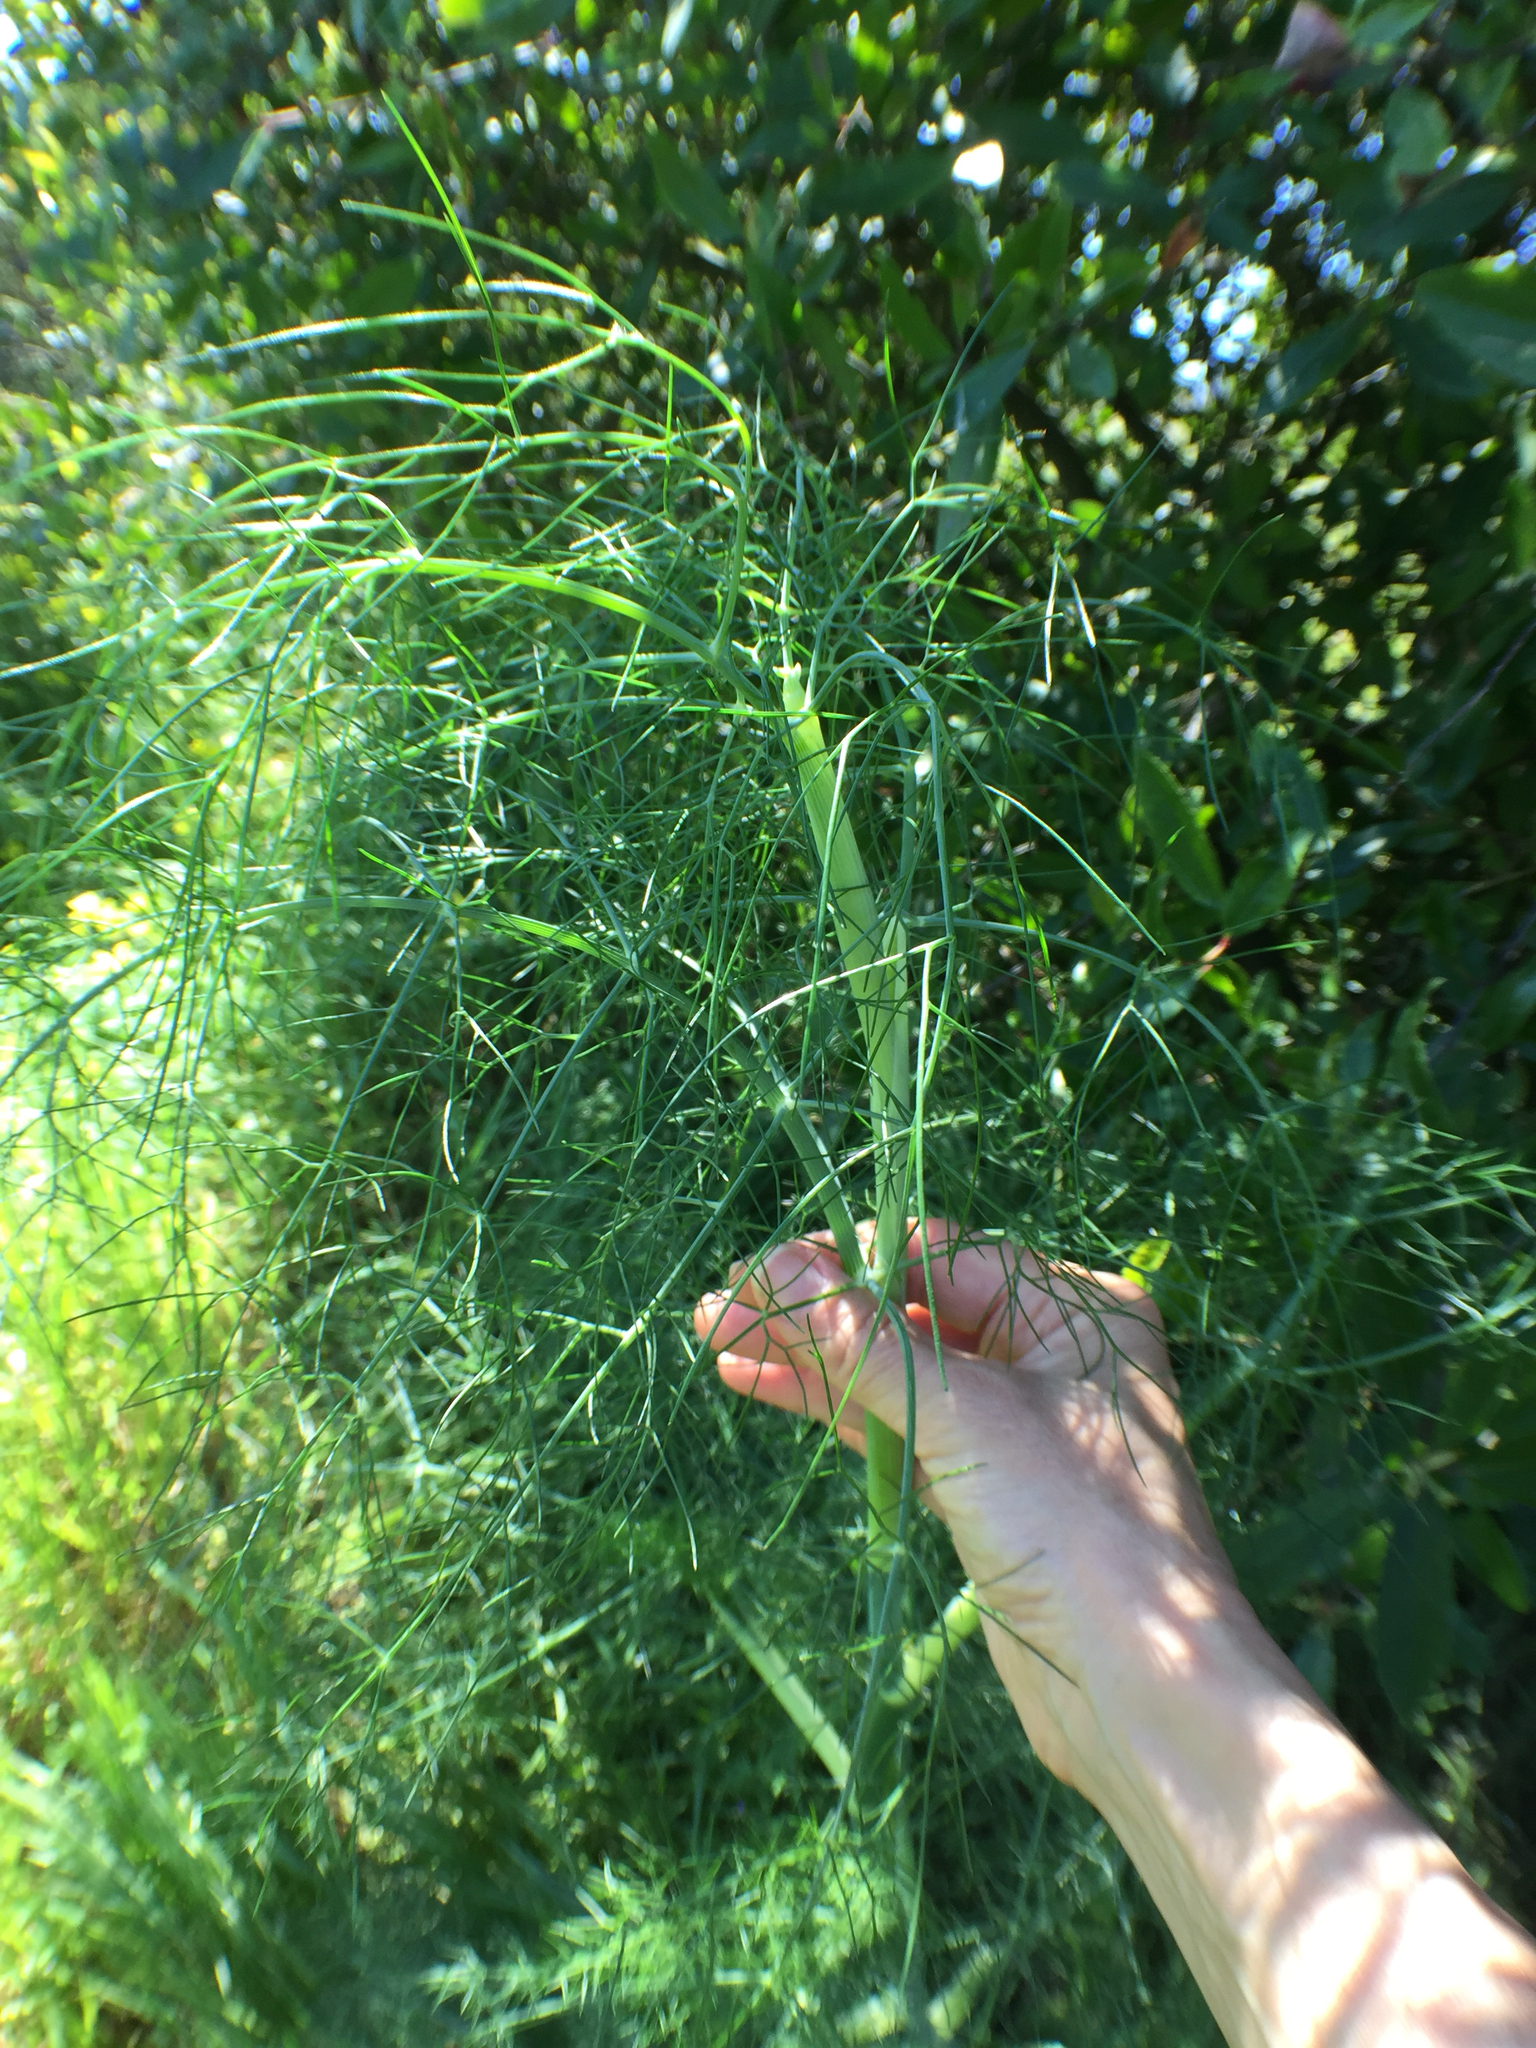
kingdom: Plantae
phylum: Tracheophyta
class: Magnoliopsida
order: Apiales
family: Apiaceae
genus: Foeniculum
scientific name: Foeniculum vulgare
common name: Fennel
